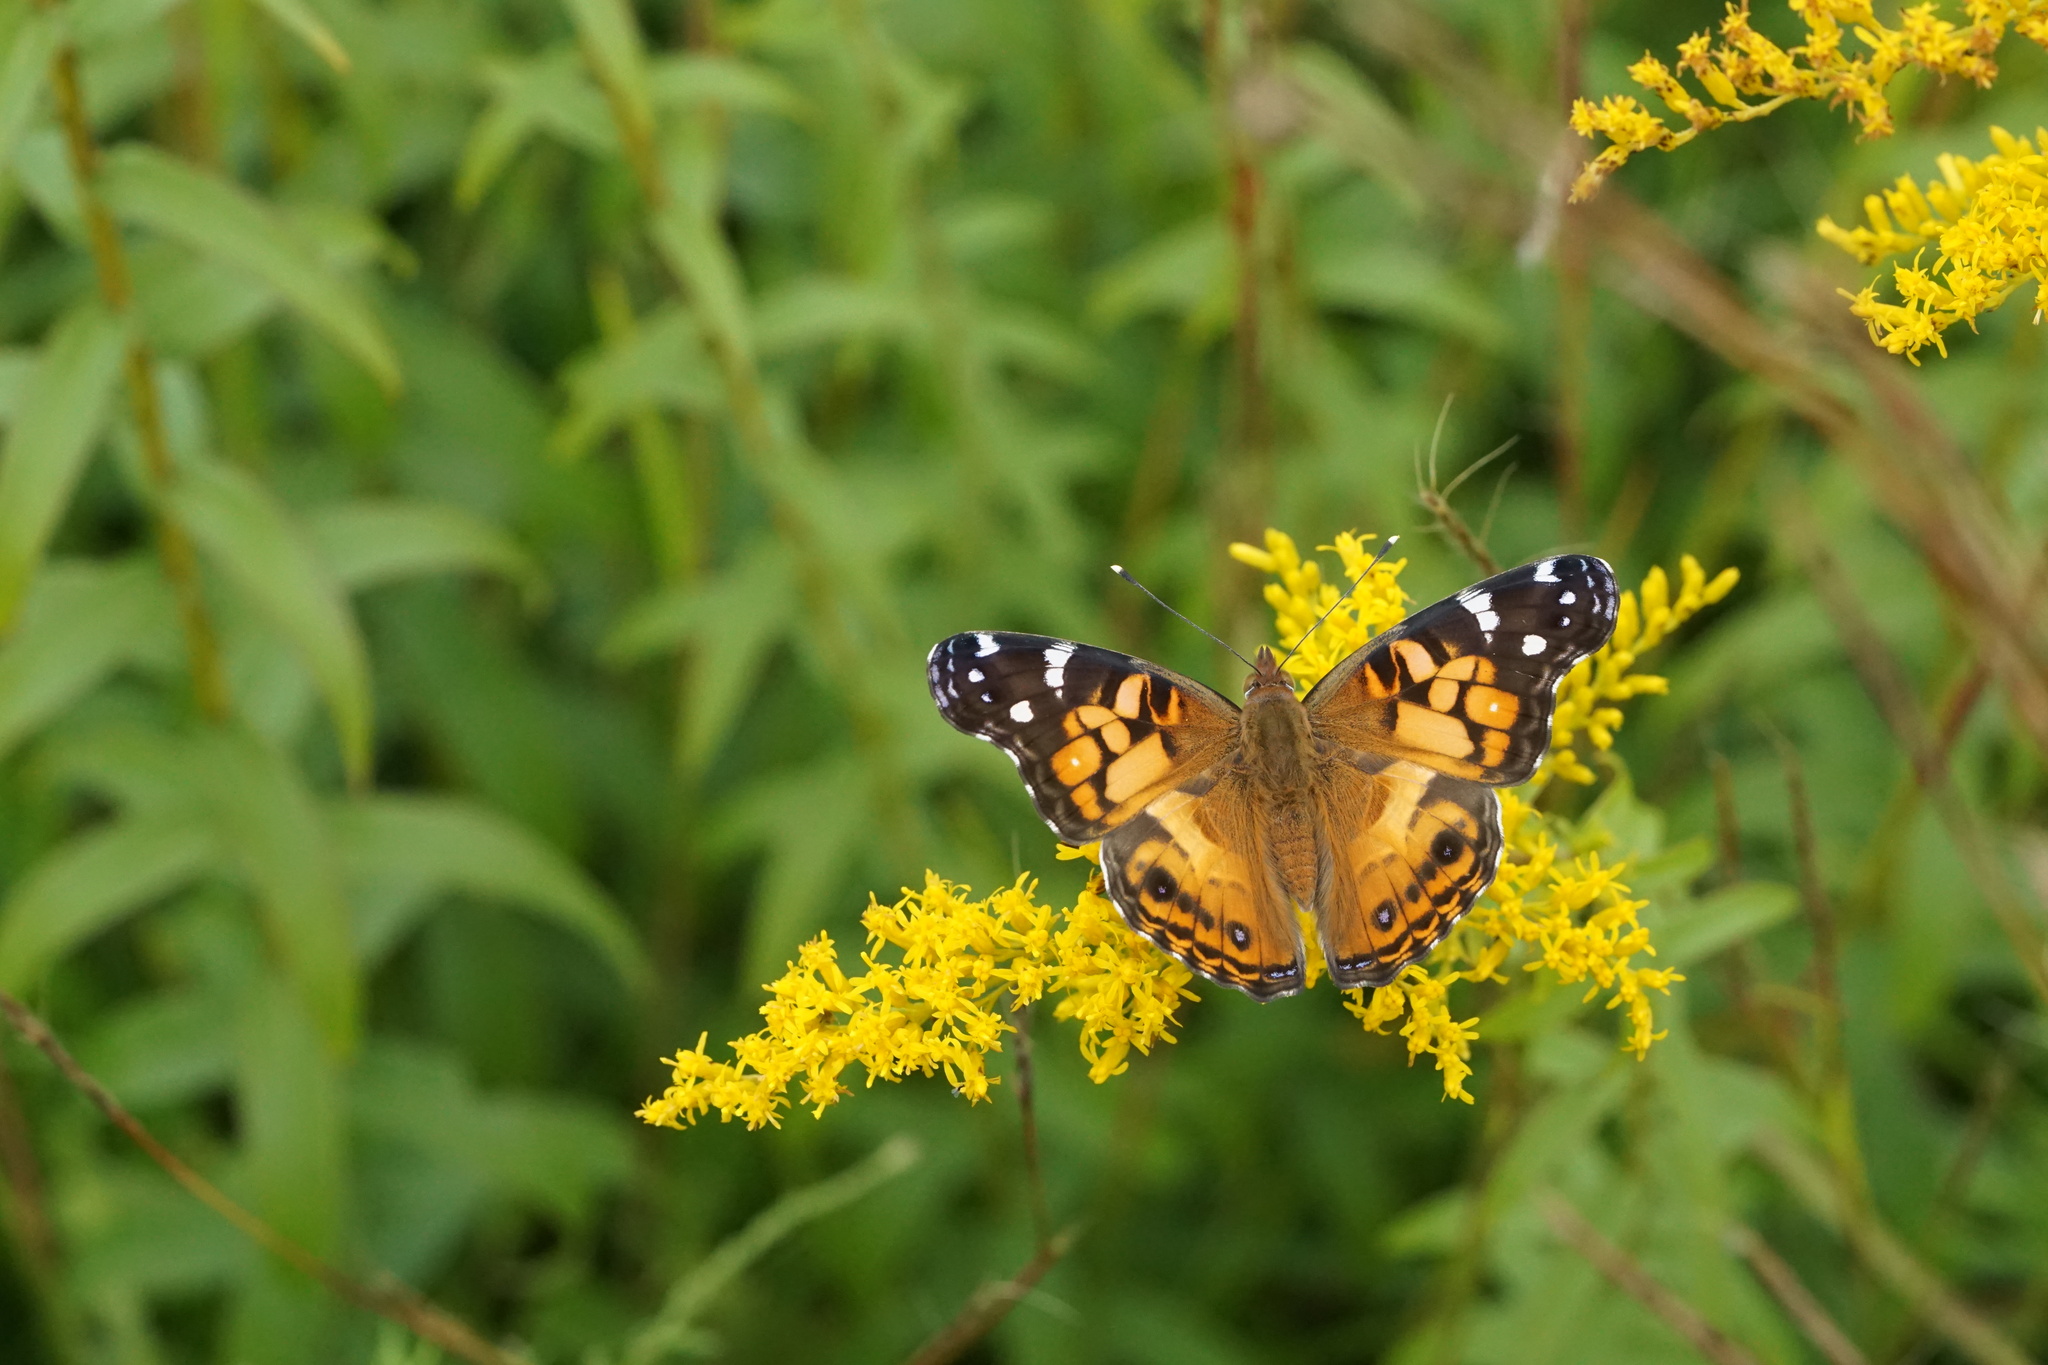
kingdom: Animalia
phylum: Arthropoda
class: Insecta
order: Lepidoptera
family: Nymphalidae
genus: Vanessa
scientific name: Vanessa virginiensis
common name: American lady
